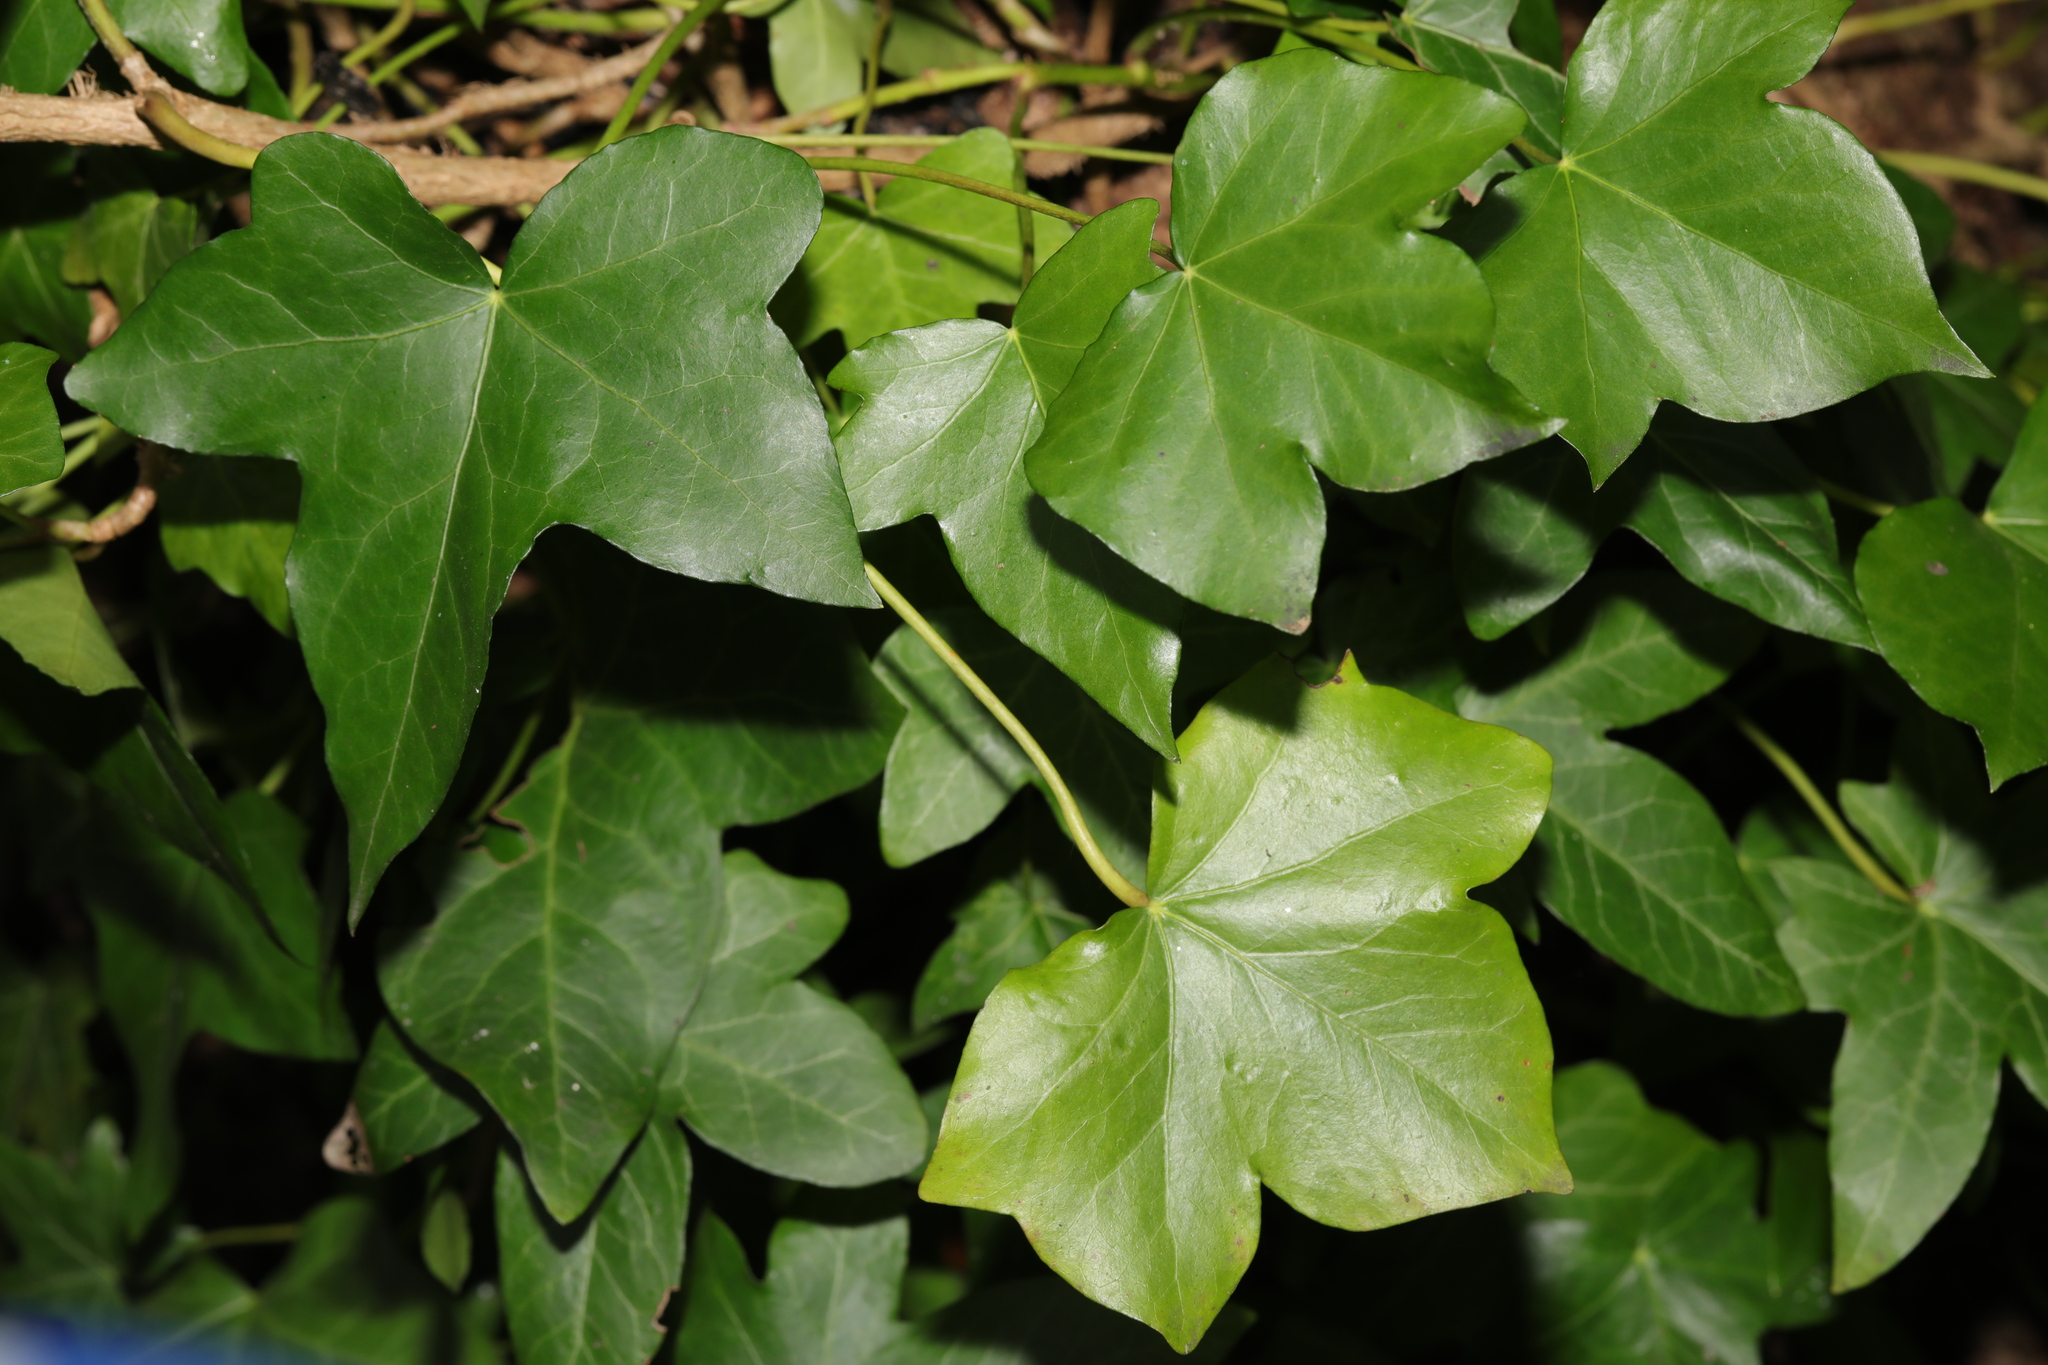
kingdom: Plantae
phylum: Tracheophyta
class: Magnoliopsida
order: Apiales
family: Araliaceae
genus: Hedera
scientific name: Hedera hibernica
